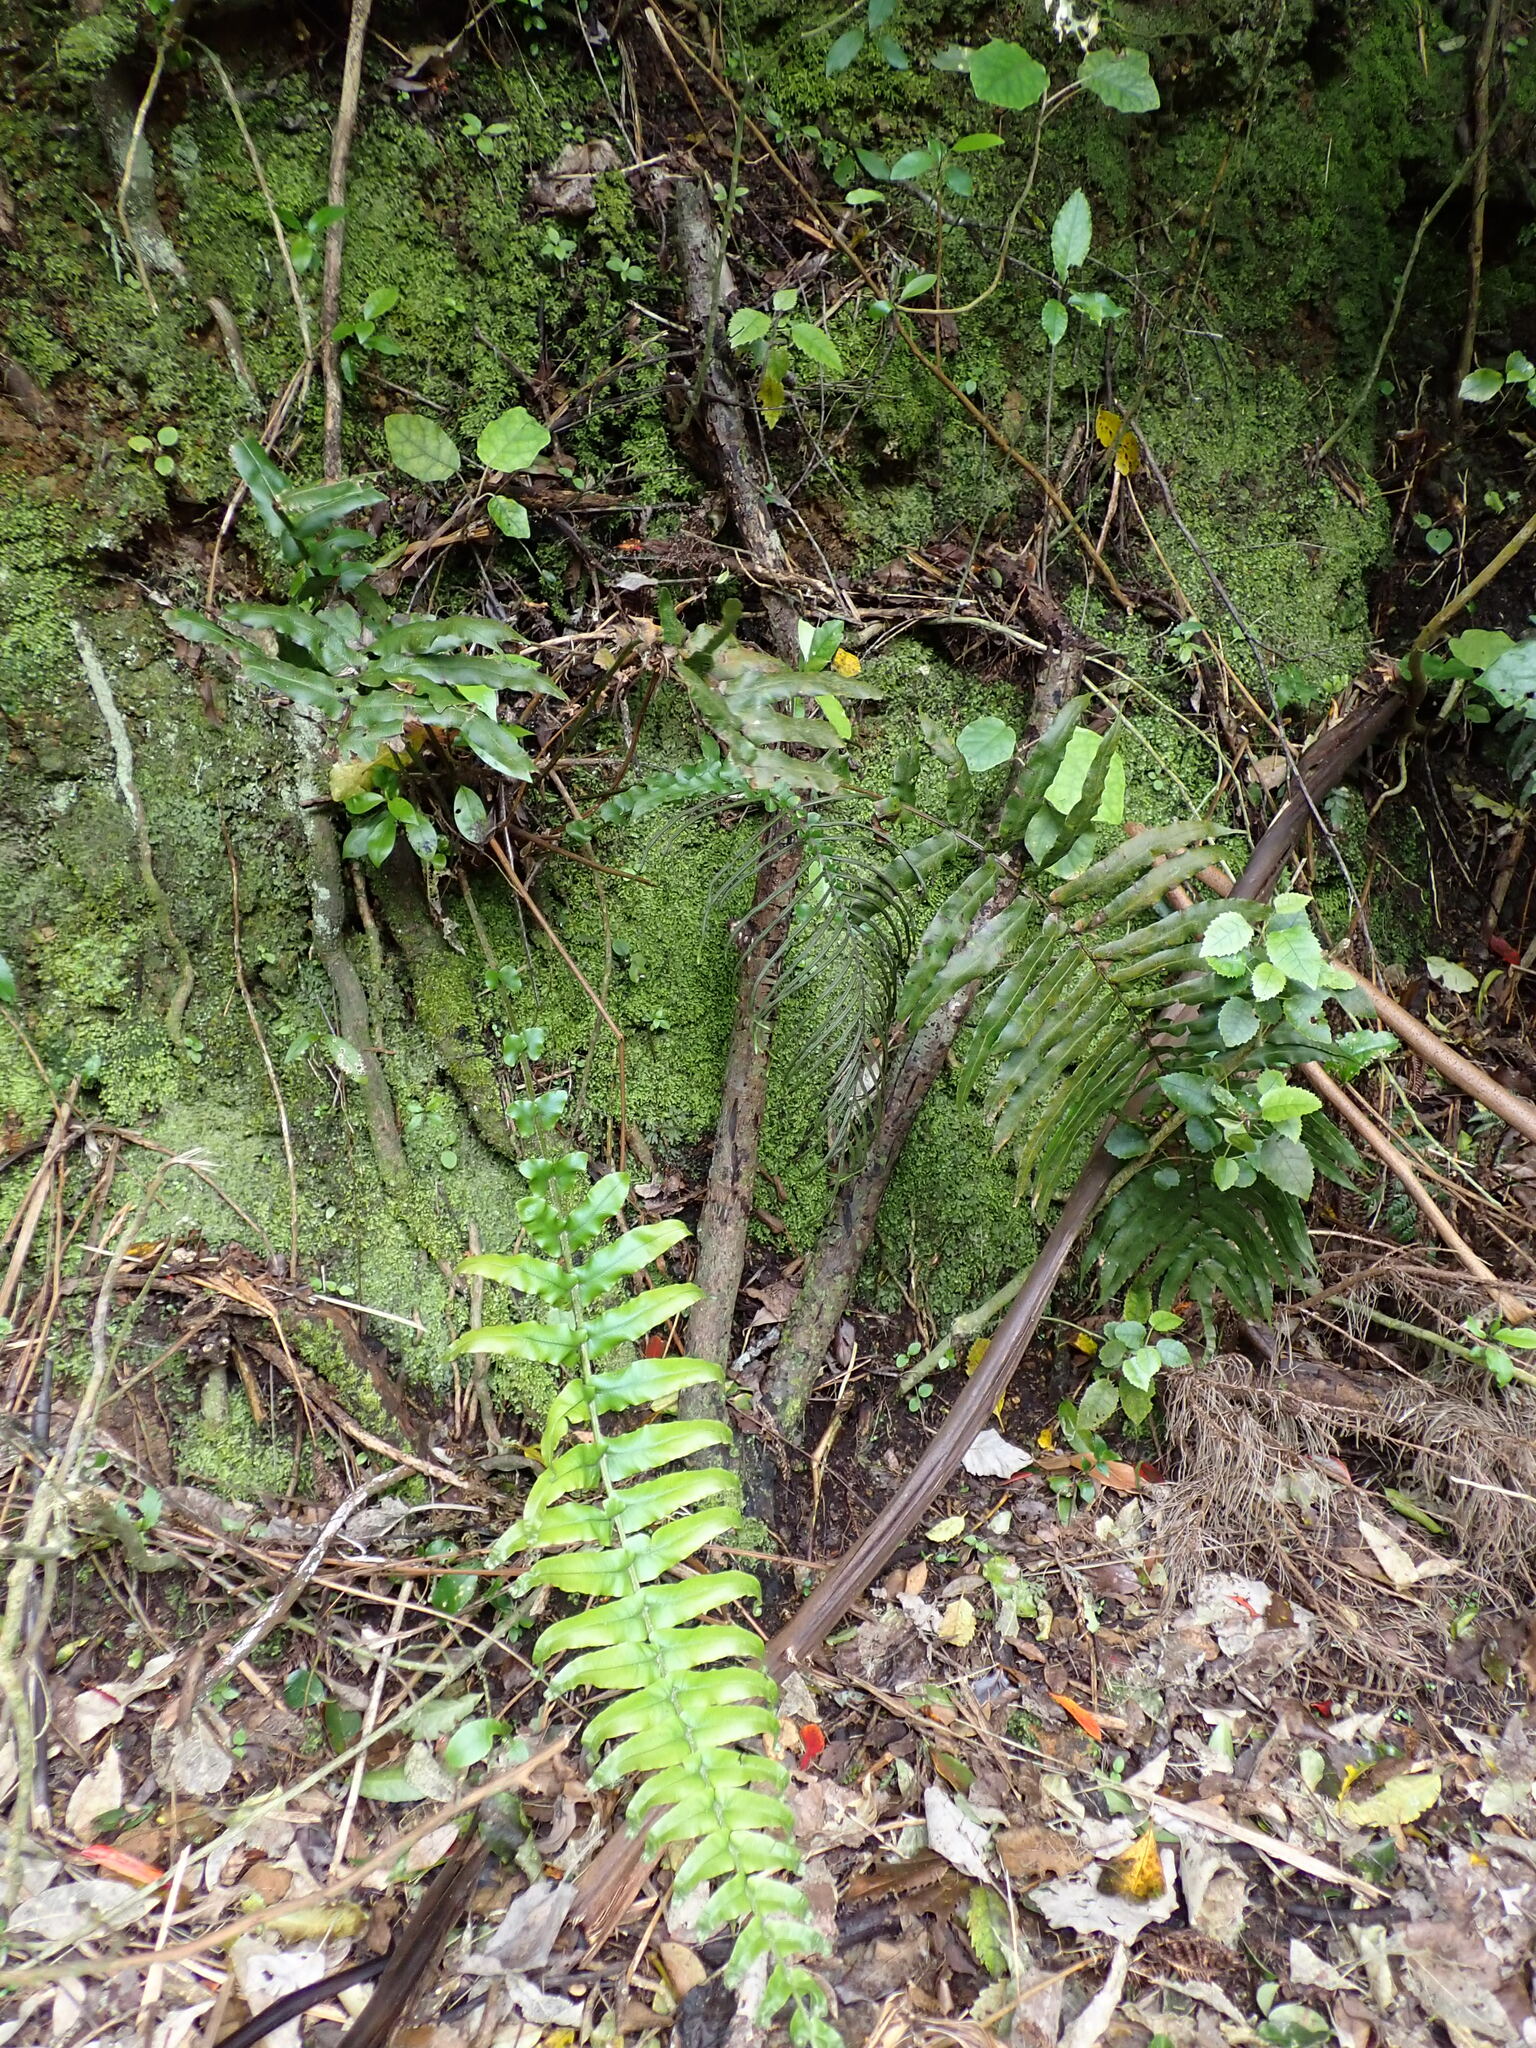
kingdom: Plantae
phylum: Tracheophyta
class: Polypodiopsida
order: Polypodiales
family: Blechnaceae
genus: Parablechnum
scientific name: Parablechnum novae-zelandiae
